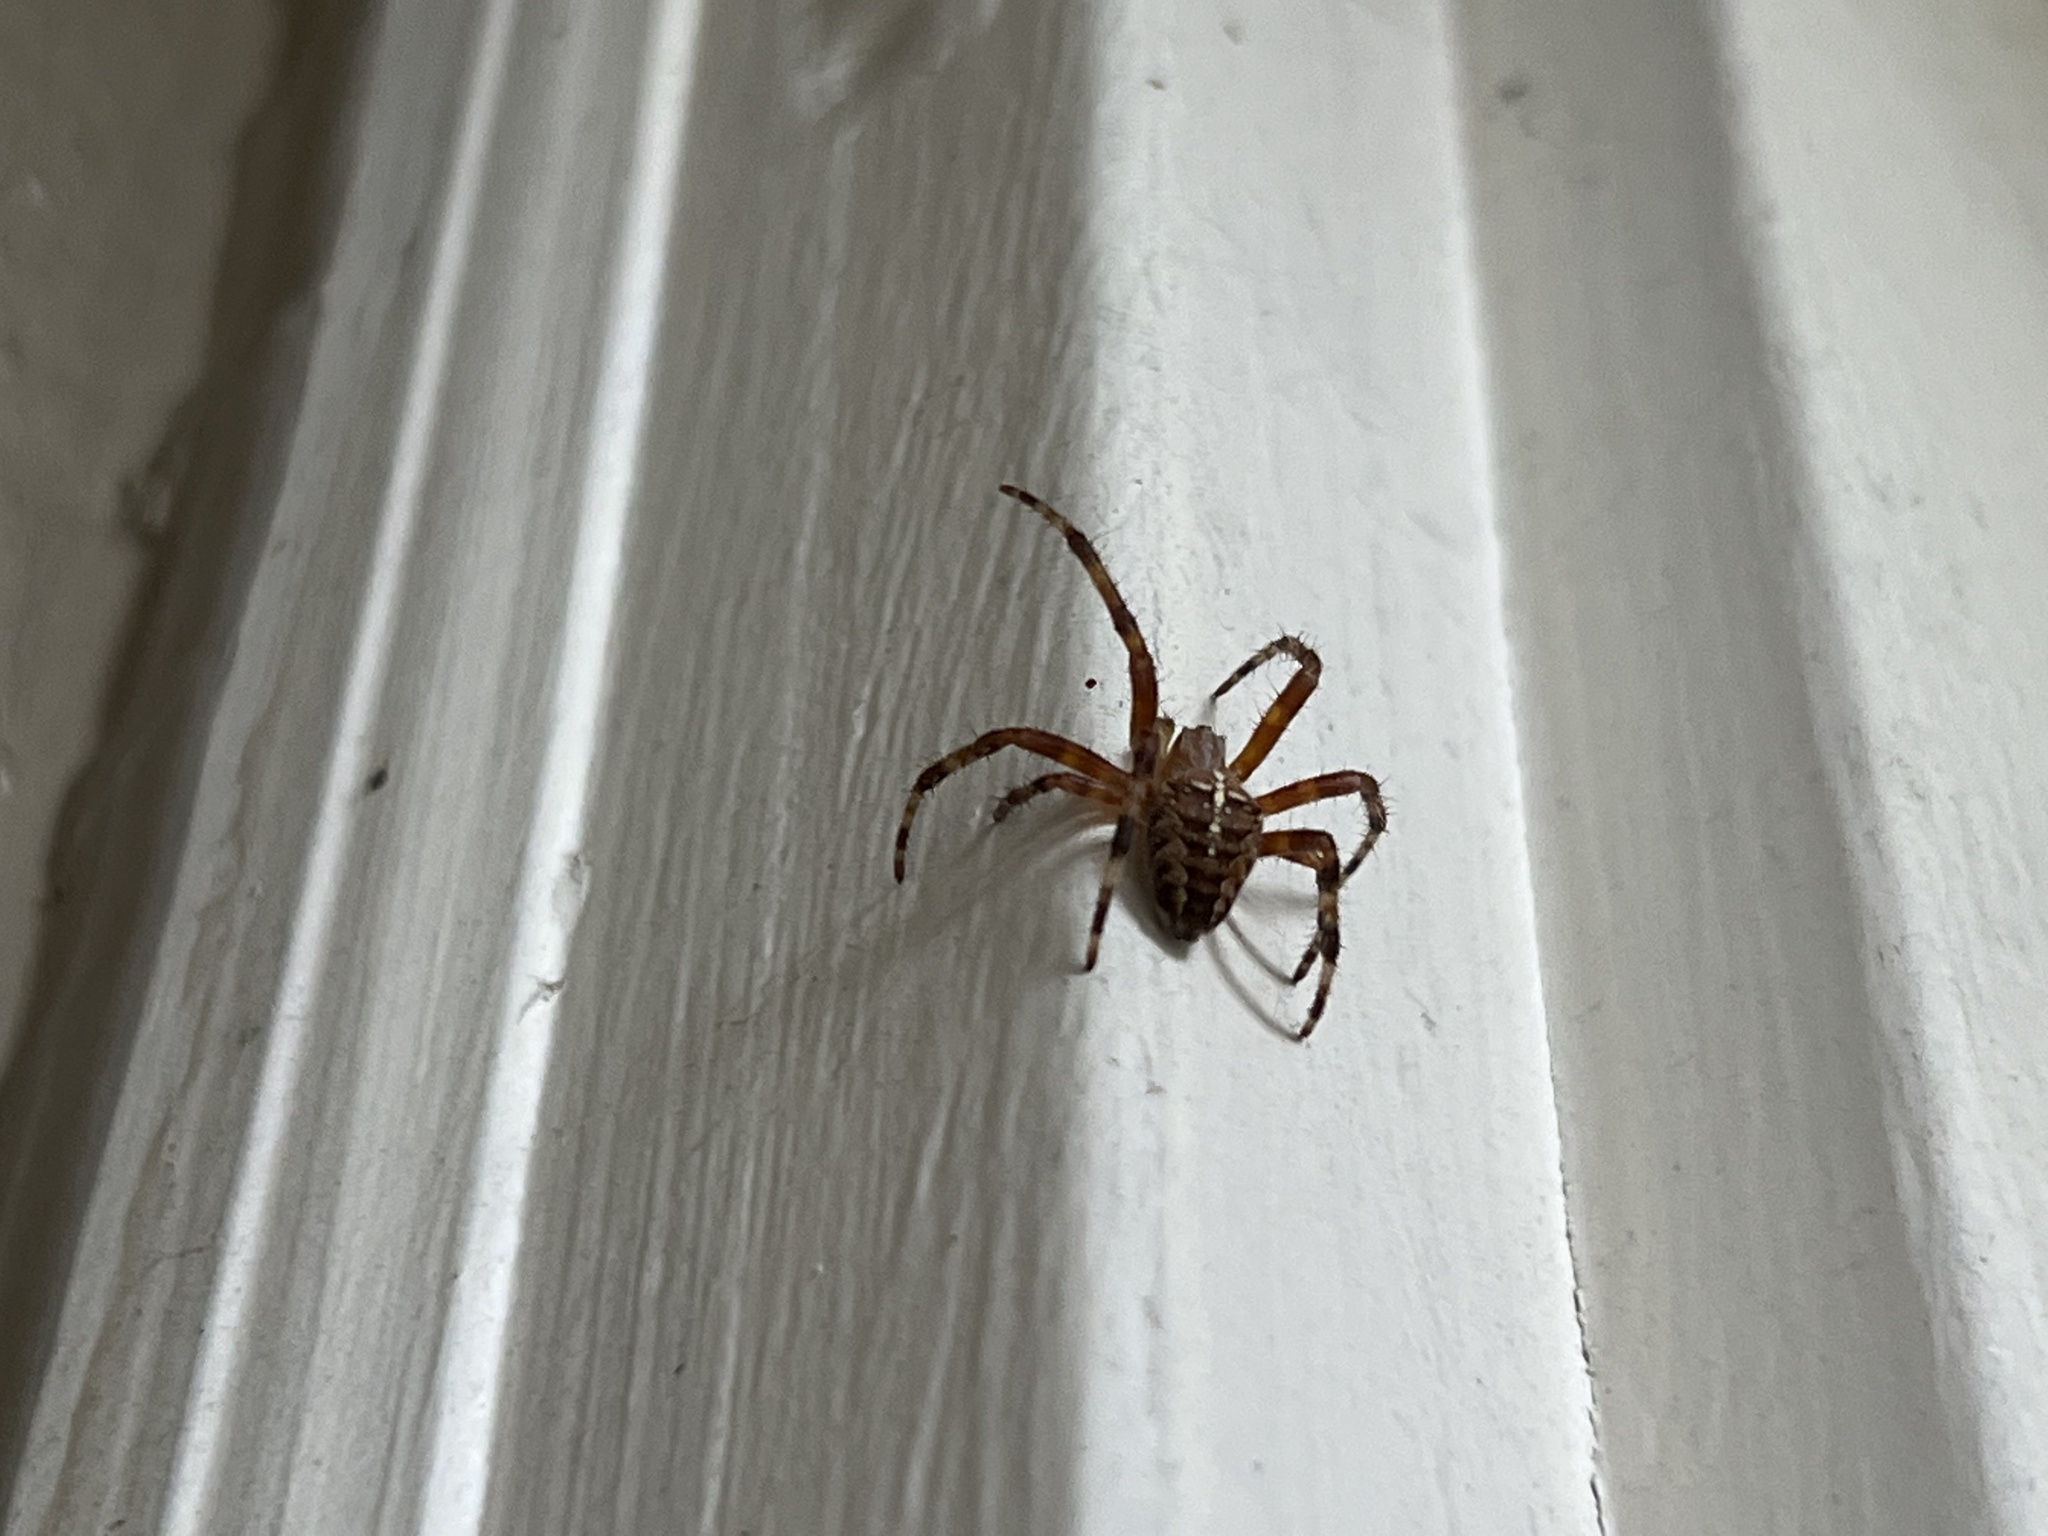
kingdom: Animalia
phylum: Arthropoda
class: Arachnida
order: Araneae
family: Araneidae
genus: Araneus
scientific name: Araneus diadematus
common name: Cross orbweaver
